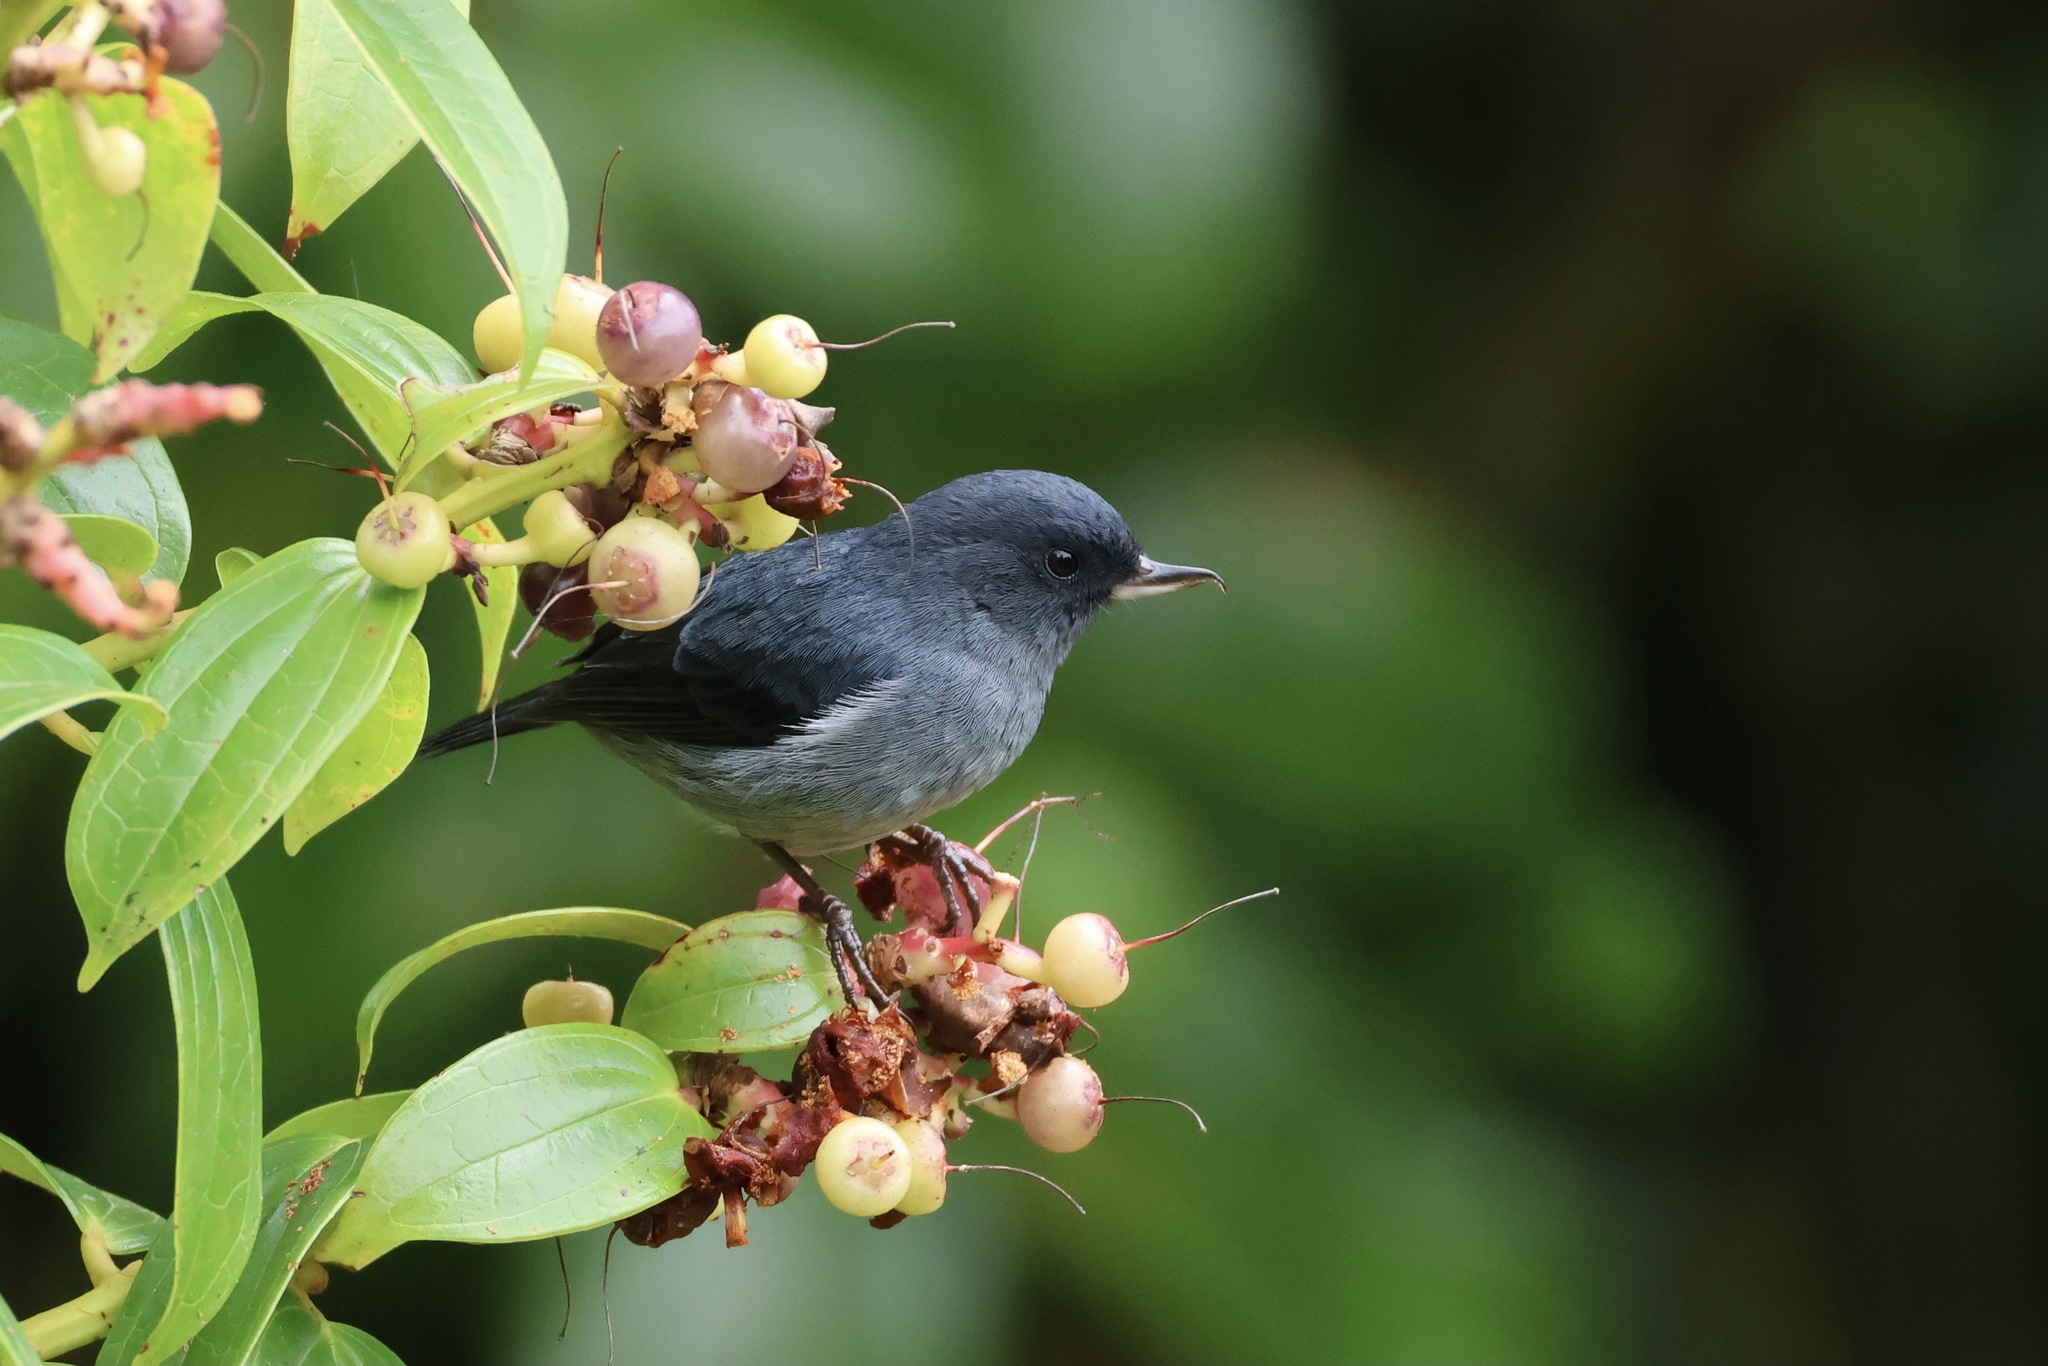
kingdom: Animalia
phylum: Chordata
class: Aves
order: Passeriformes
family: Thraupidae
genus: Diglossa
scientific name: Diglossa plumbea
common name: Slaty flowerpiercer
